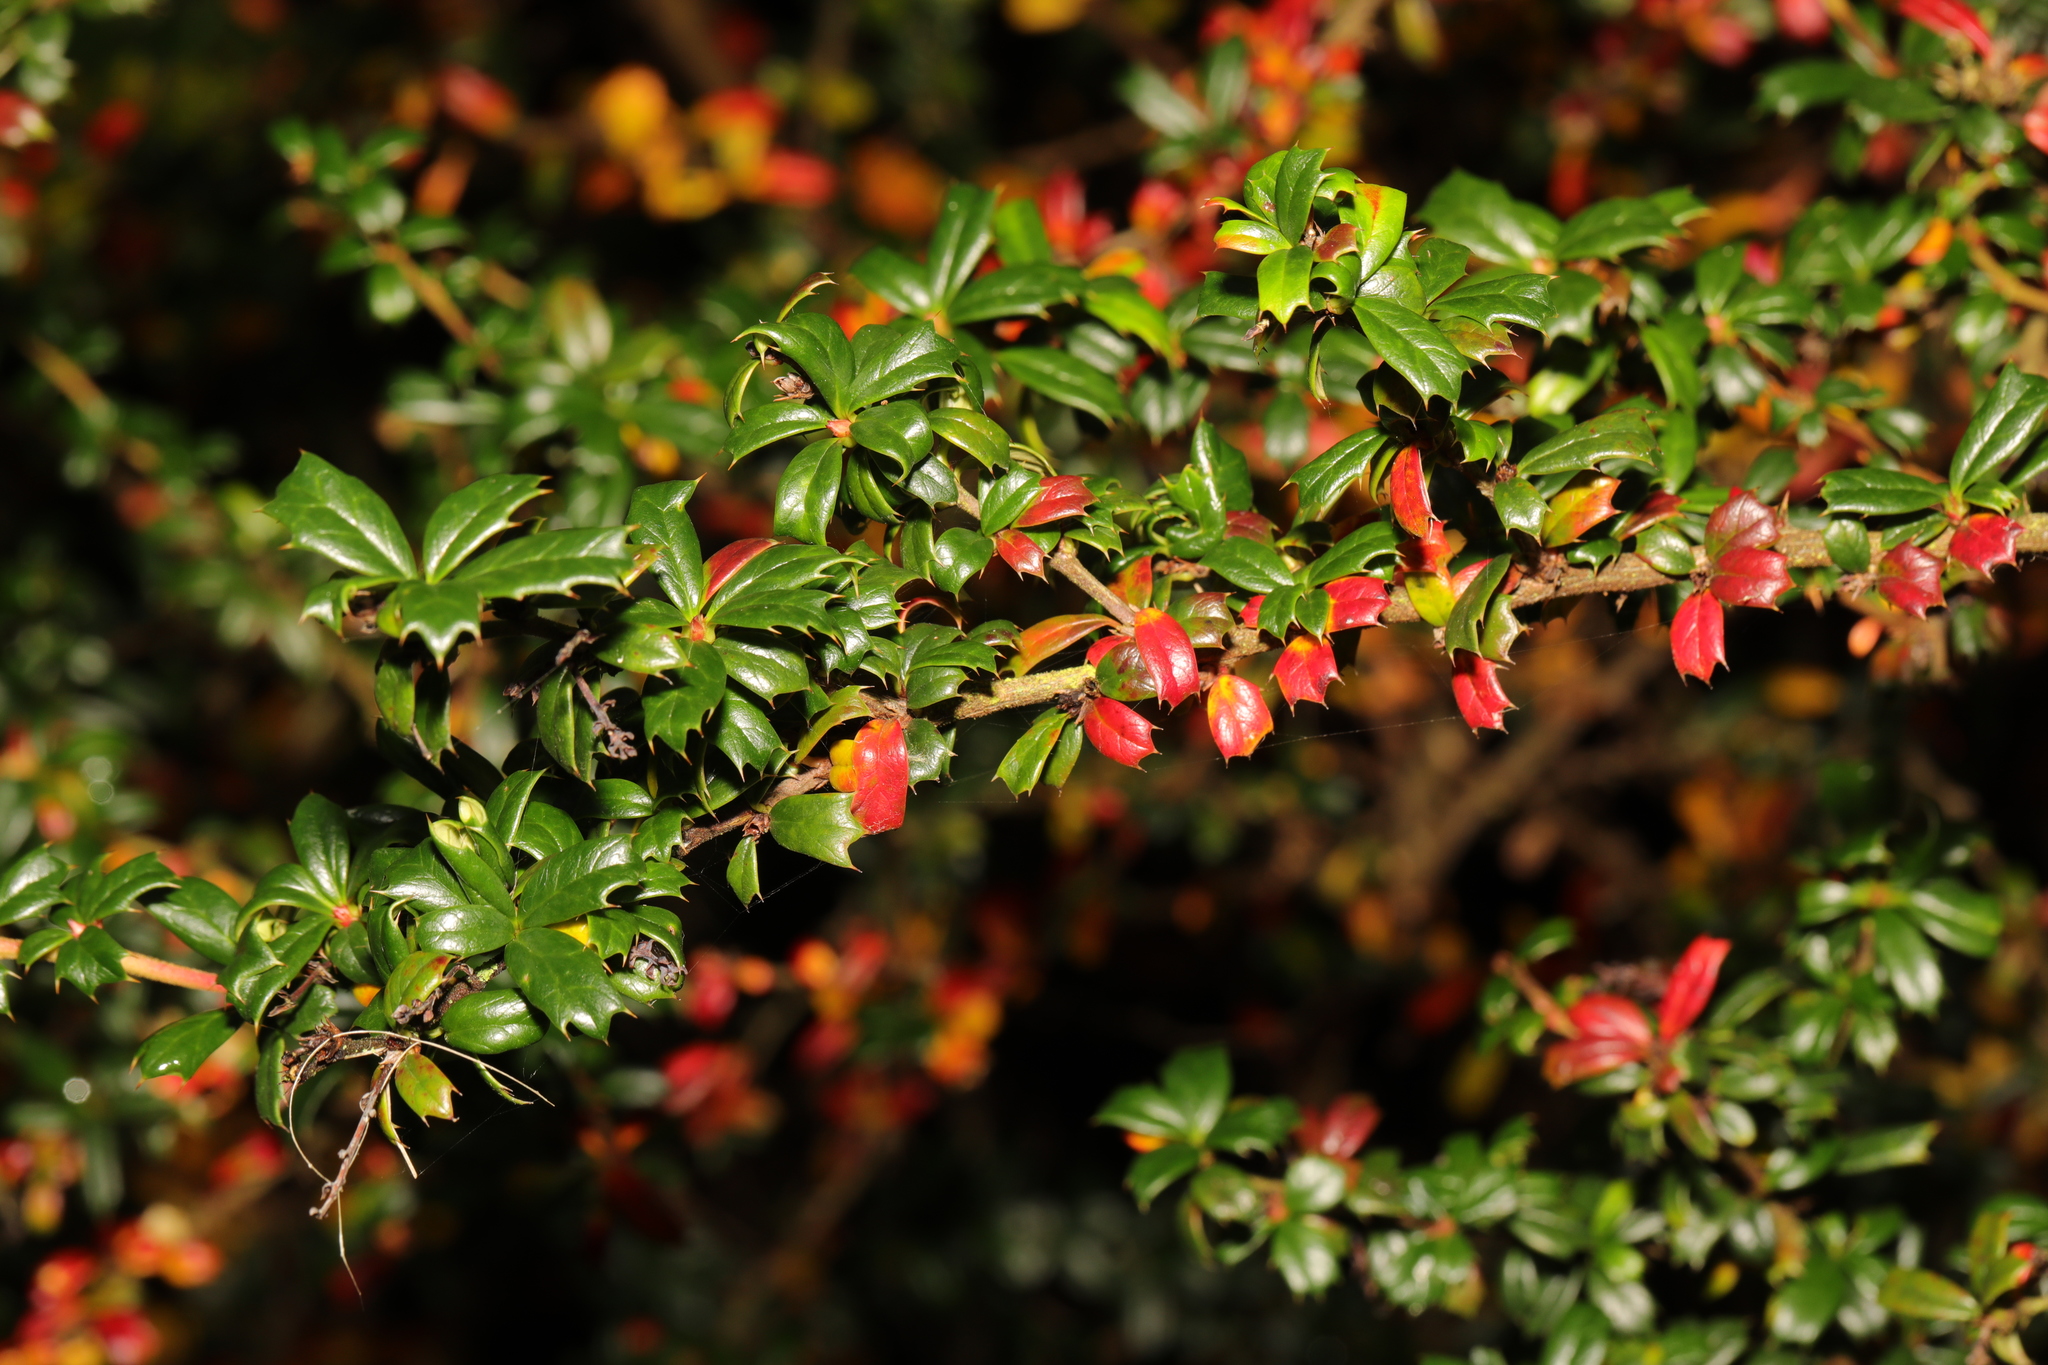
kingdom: Plantae
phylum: Tracheophyta
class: Magnoliopsida
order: Ranunculales
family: Berberidaceae
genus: Berberis
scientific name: Berberis darwinii
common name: Darwin's barberry
